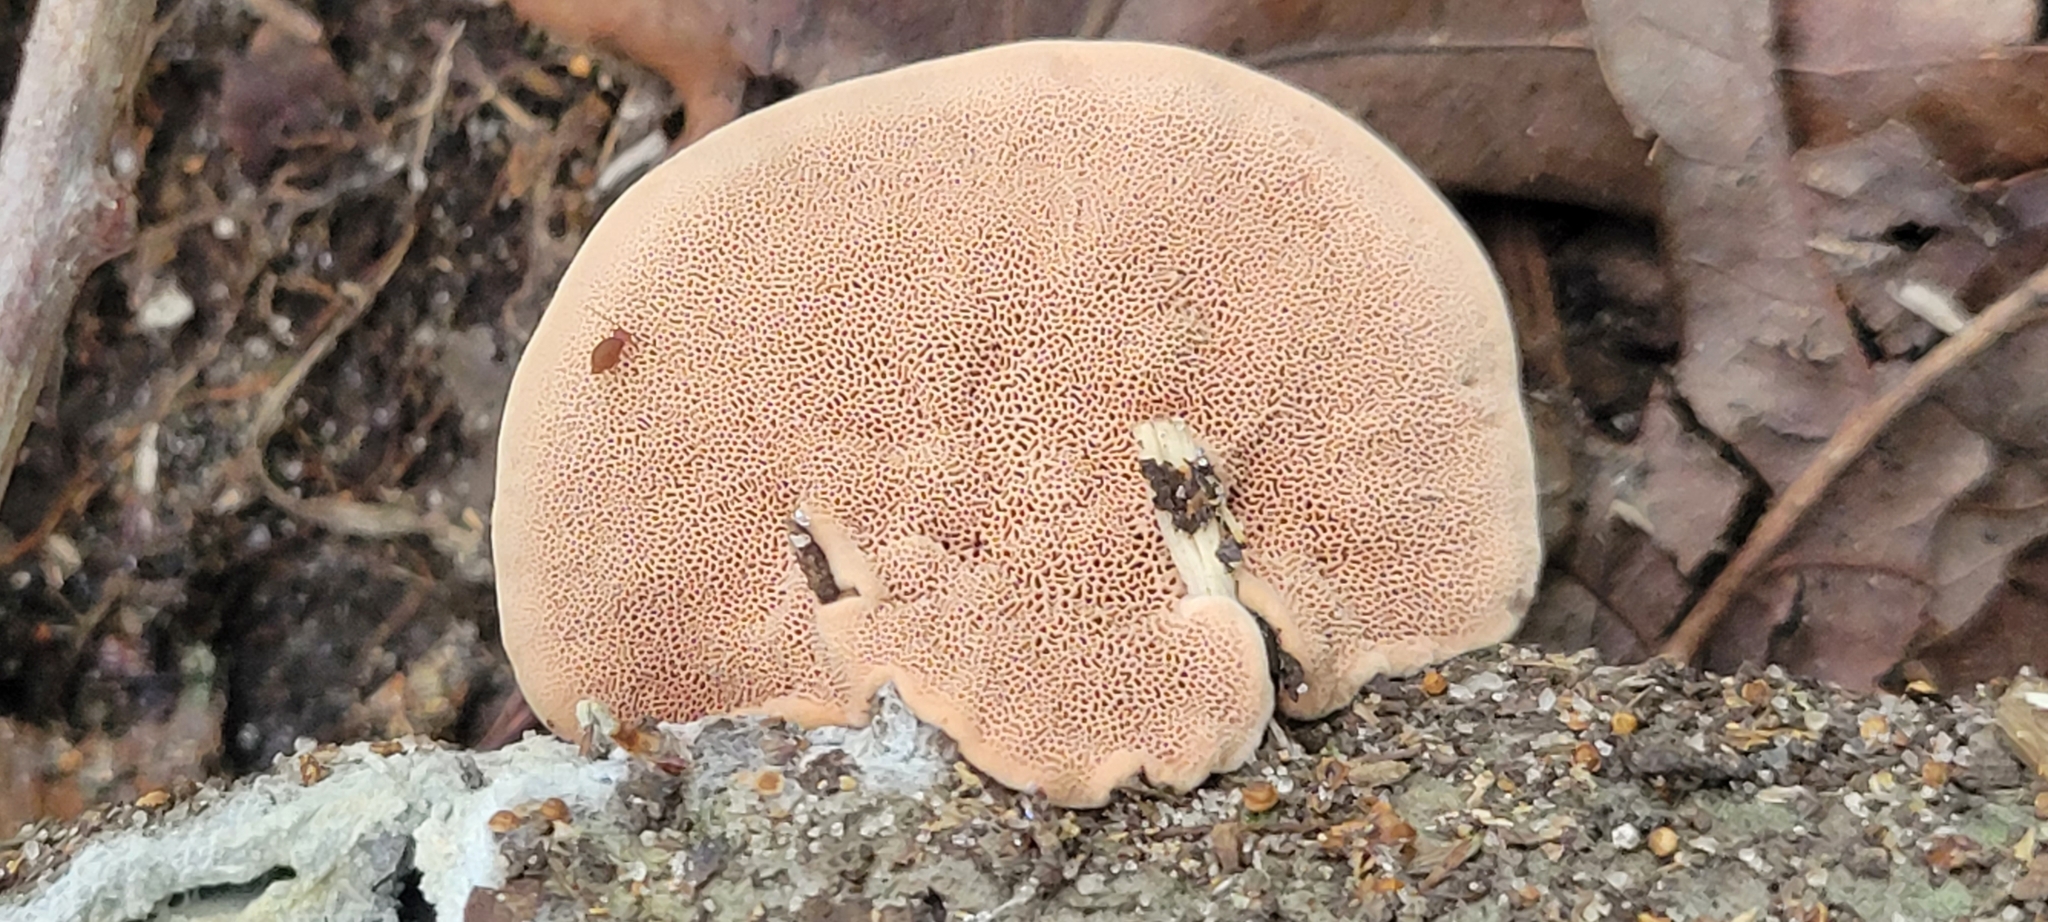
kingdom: Fungi
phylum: Basidiomycota
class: Agaricomycetes
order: Polyporales
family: Phanerochaetaceae
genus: Hapalopilus
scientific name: Hapalopilus rutilans
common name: Tender nesting polypore
